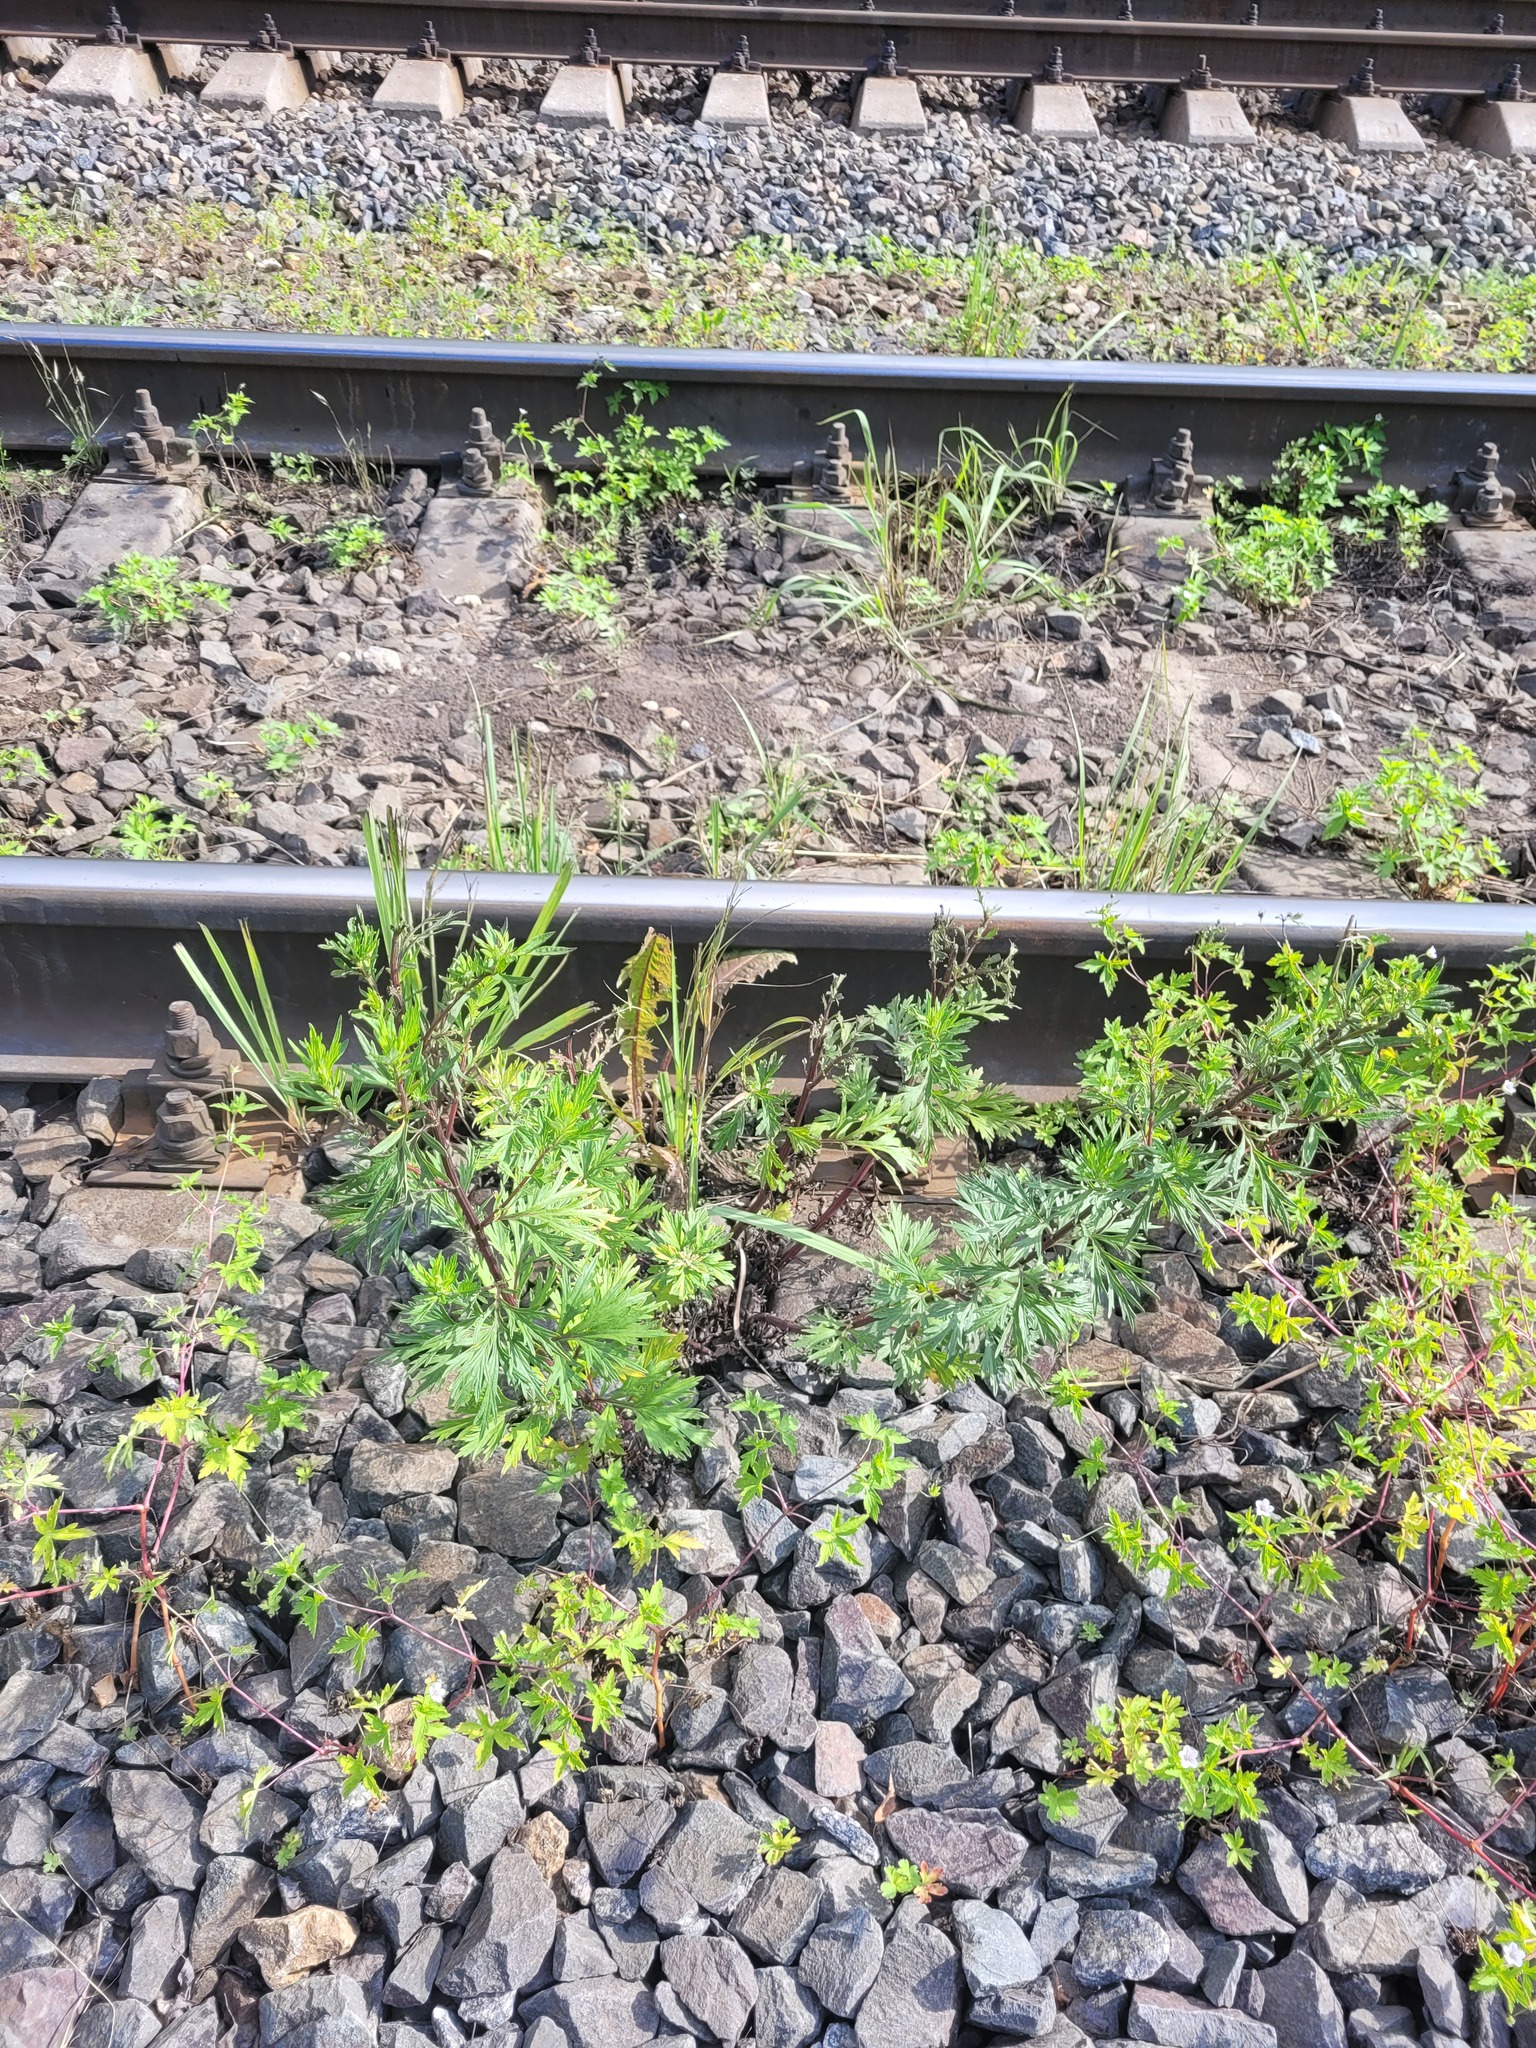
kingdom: Plantae
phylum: Tracheophyta
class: Magnoliopsida
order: Asterales
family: Asteraceae
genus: Artemisia
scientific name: Artemisia vulgaris
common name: Mugwort
